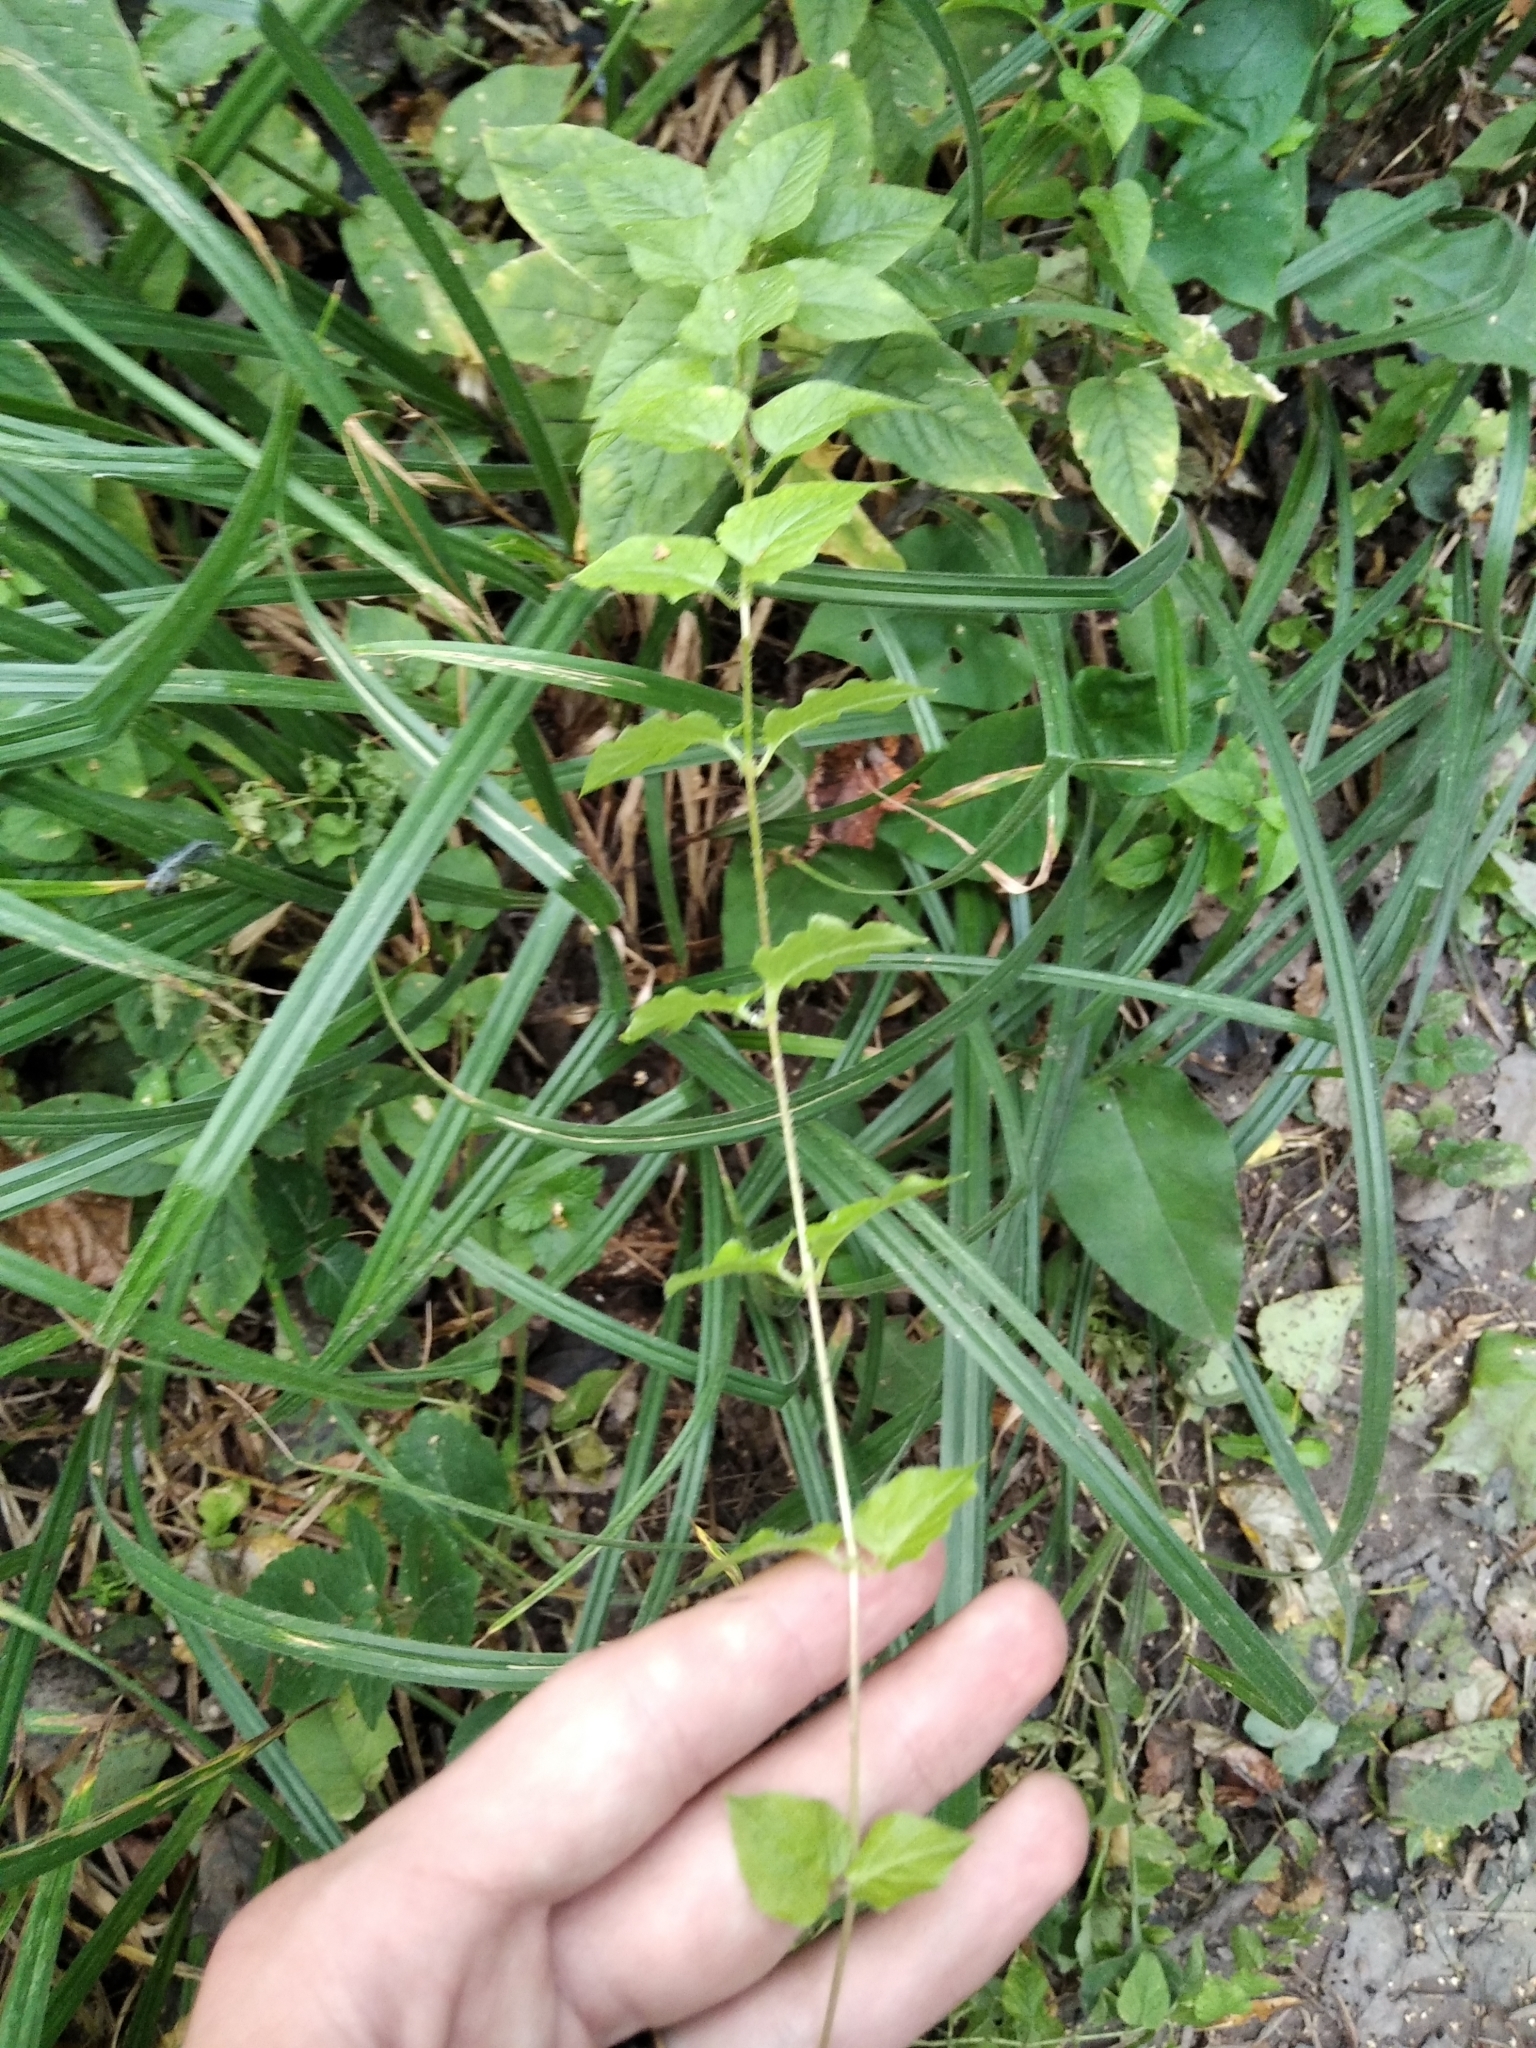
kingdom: Plantae
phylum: Tracheophyta
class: Magnoliopsida
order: Caryophyllales
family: Caryophyllaceae
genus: Stellaria
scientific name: Stellaria aquatica
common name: Water chickweed
